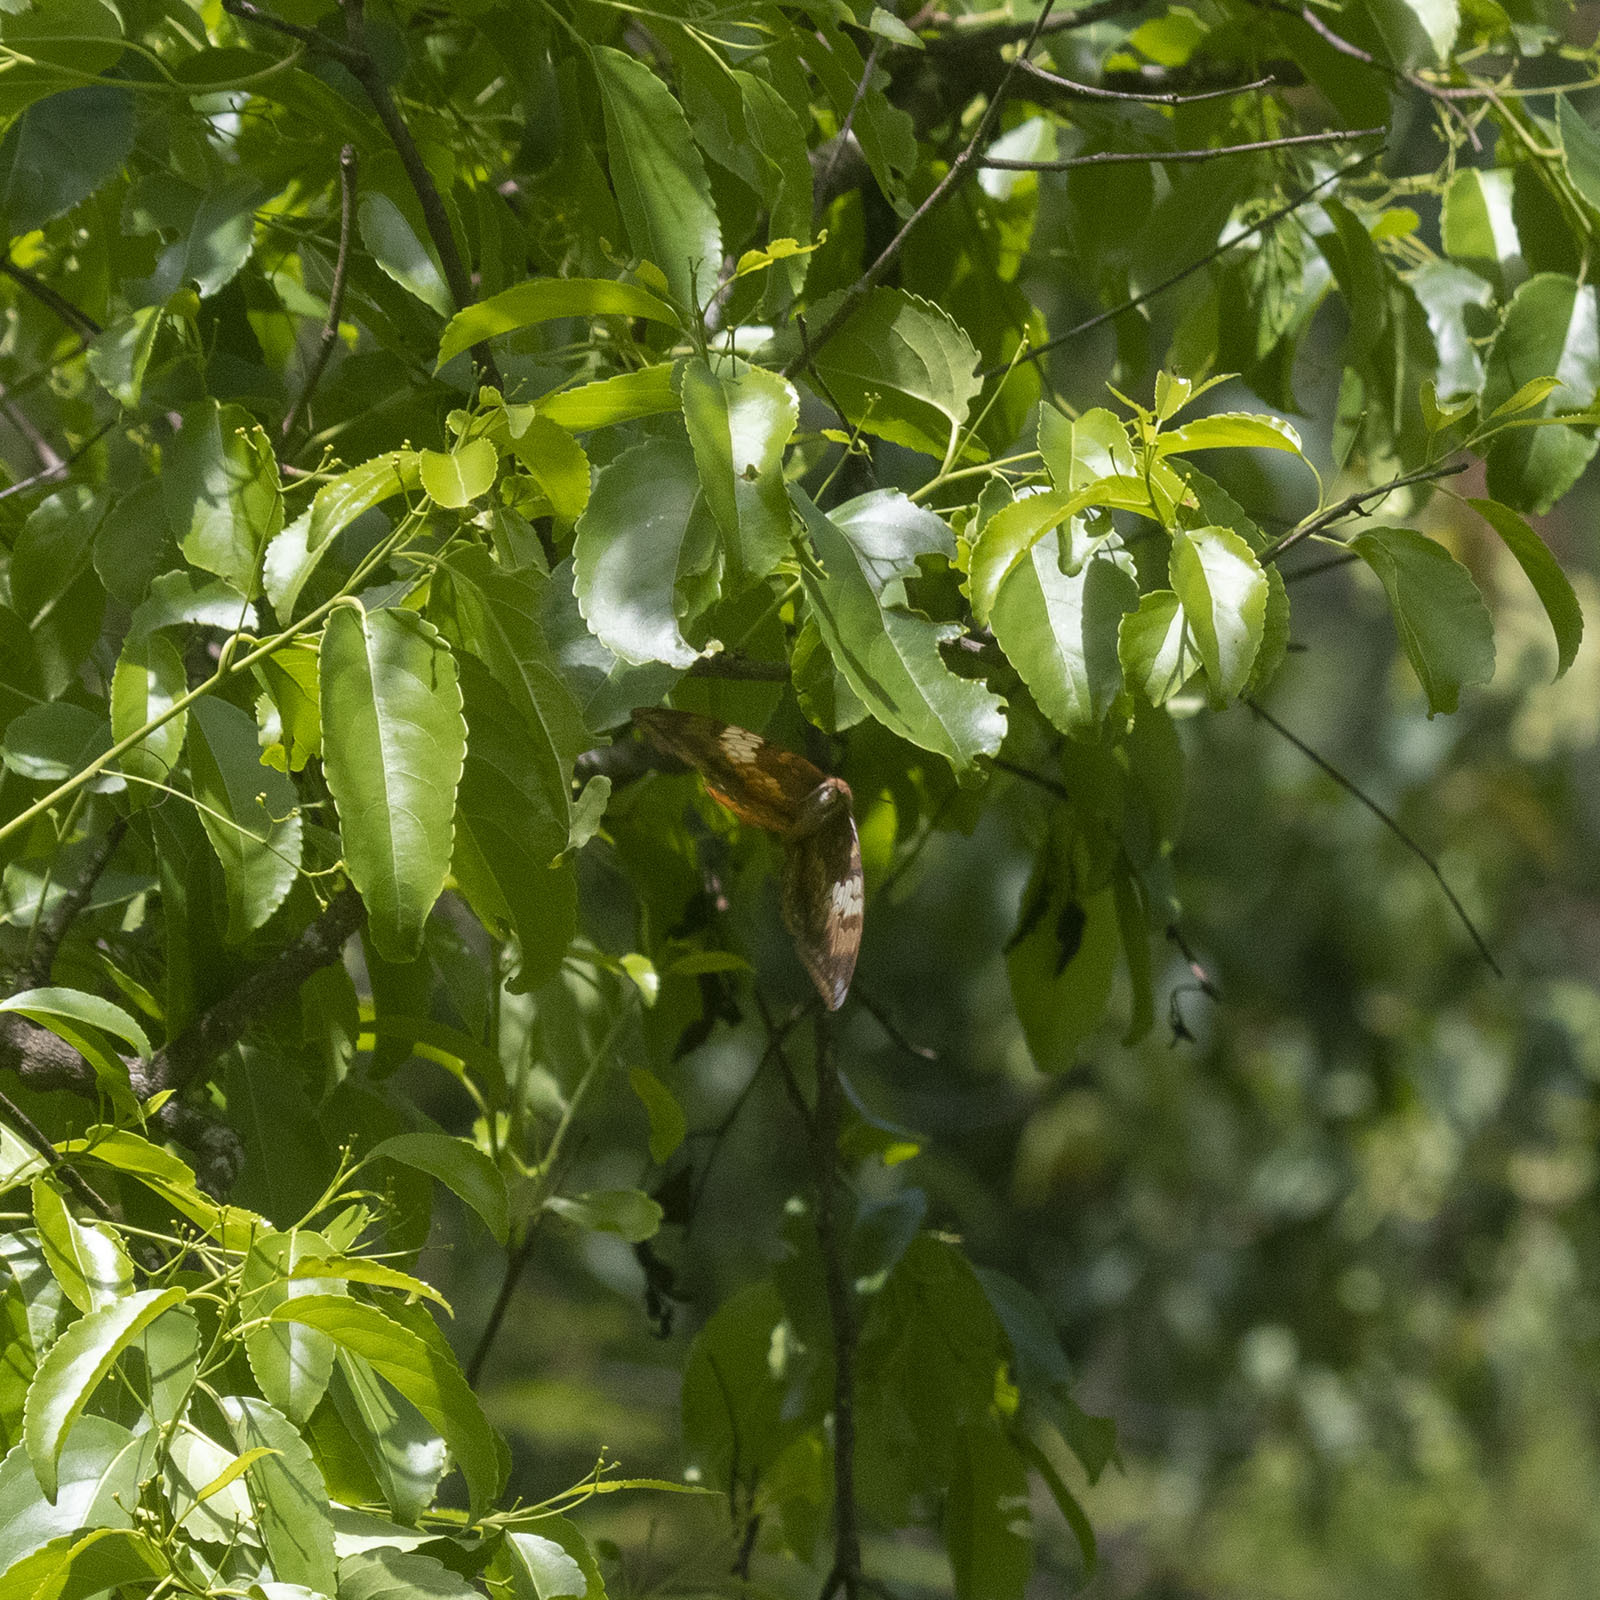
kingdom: Animalia
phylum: Arthropoda
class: Insecta
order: Lepidoptera
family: Nymphalidae
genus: Cupha
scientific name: Cupha erymanthis
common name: Rustic
